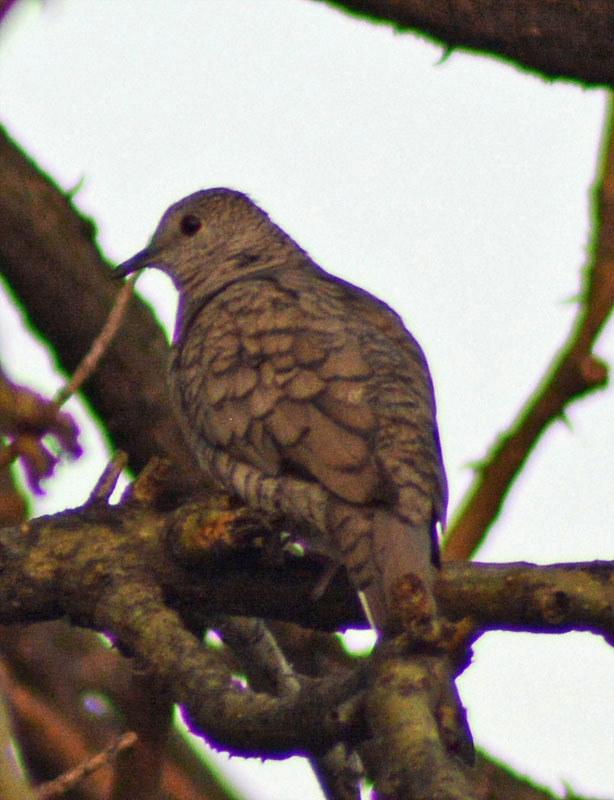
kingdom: Animalia
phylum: Chordata
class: Aves
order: Columbiformes
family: Columbidae
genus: Columbina
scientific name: Columbina inca
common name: Inca dove
